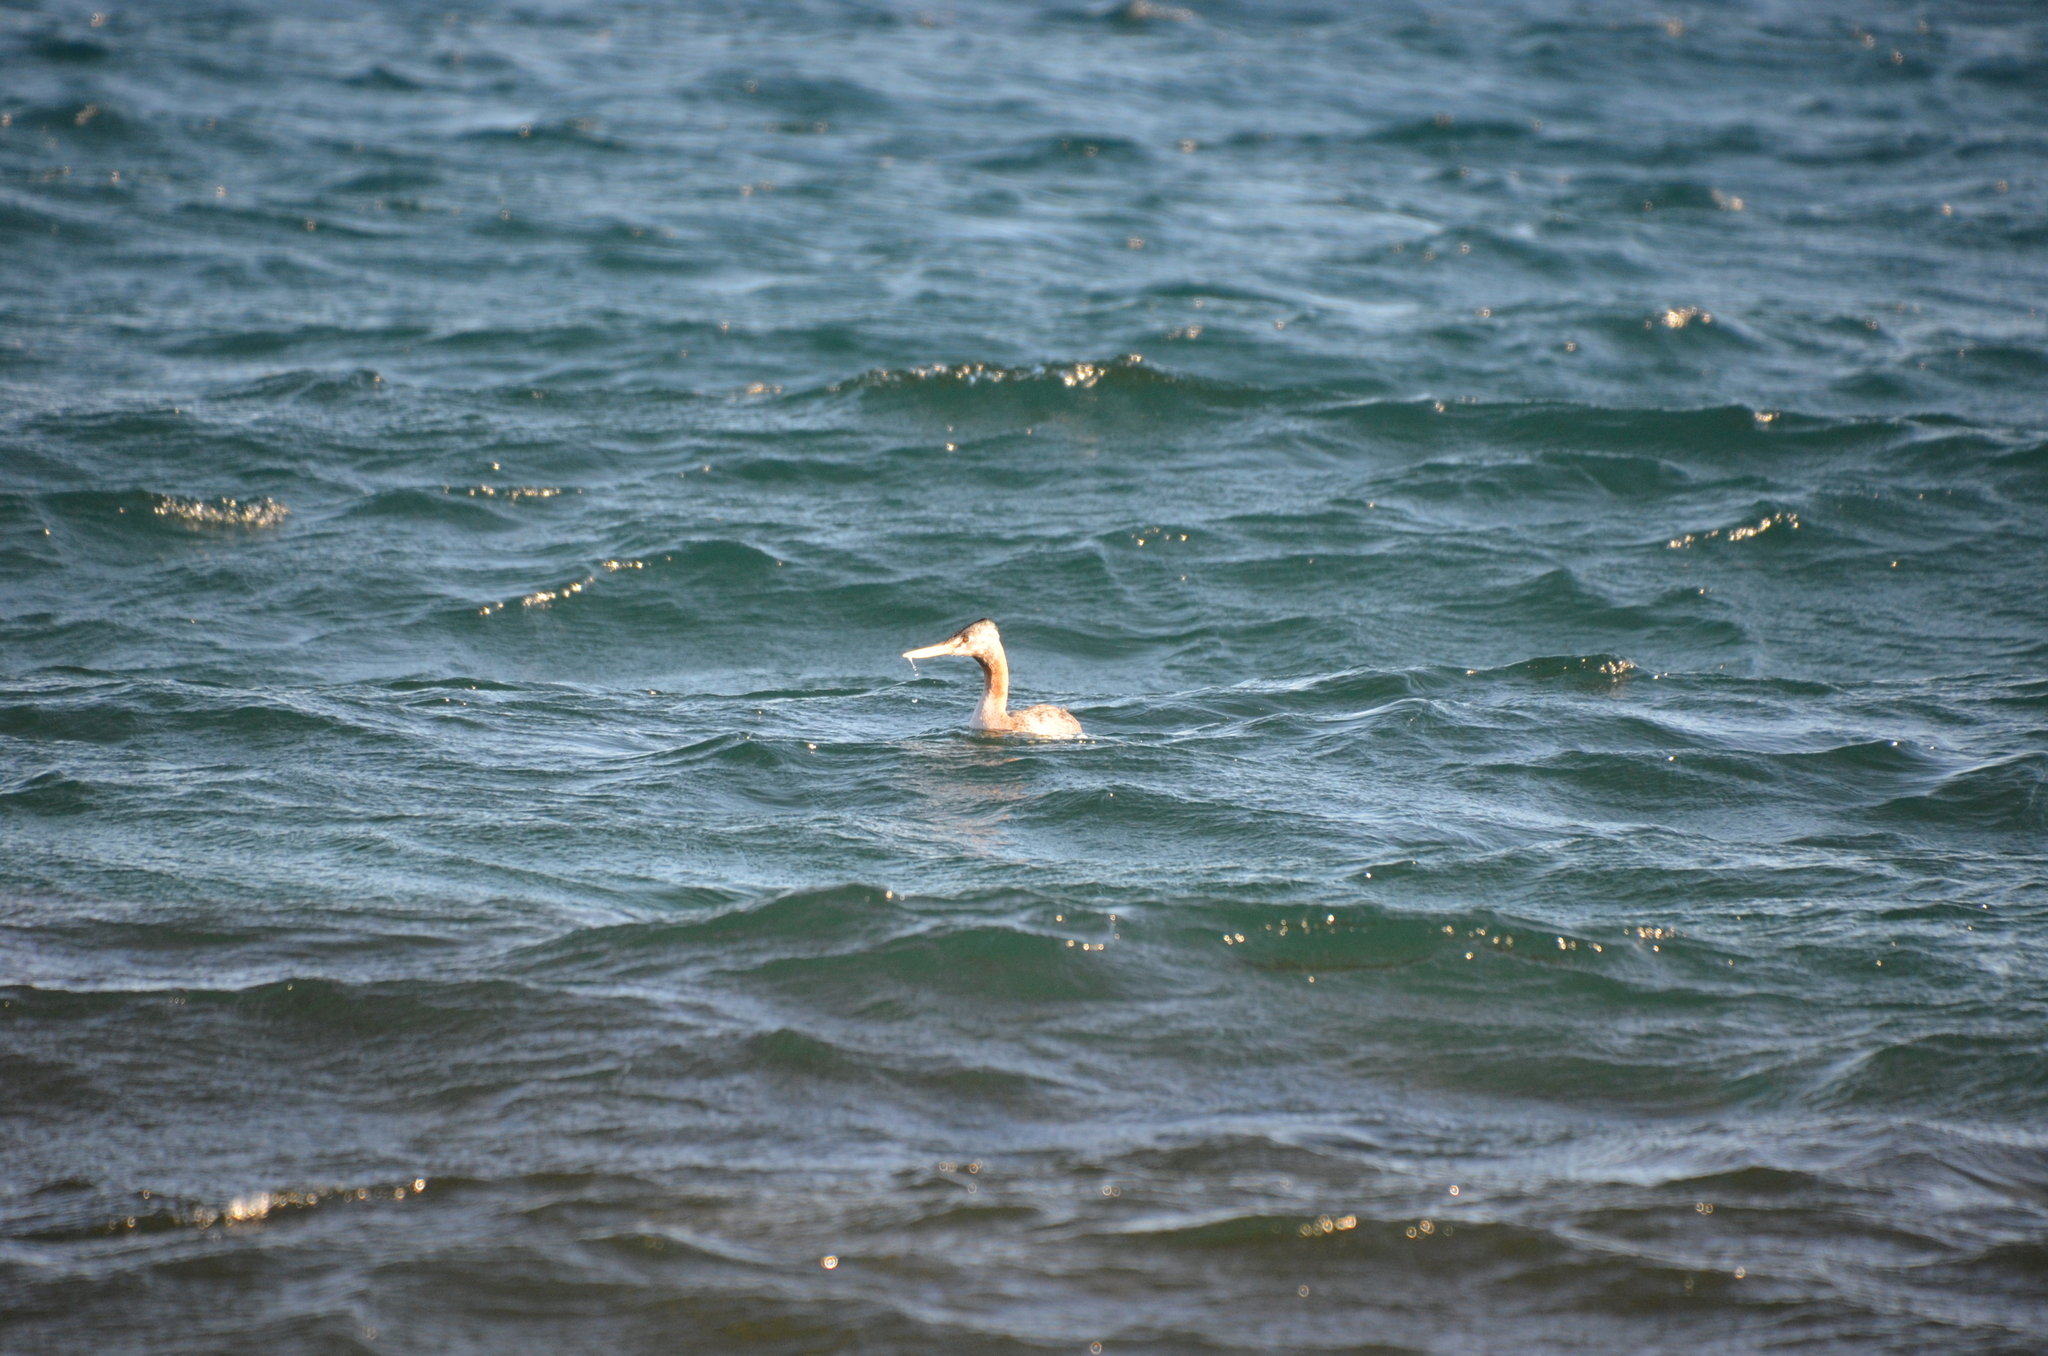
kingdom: Animalia
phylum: Chordata
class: Aves
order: Podicipediformes
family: Podicipedidae
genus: Podiceps
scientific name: Podiceps major
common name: Great grebe
